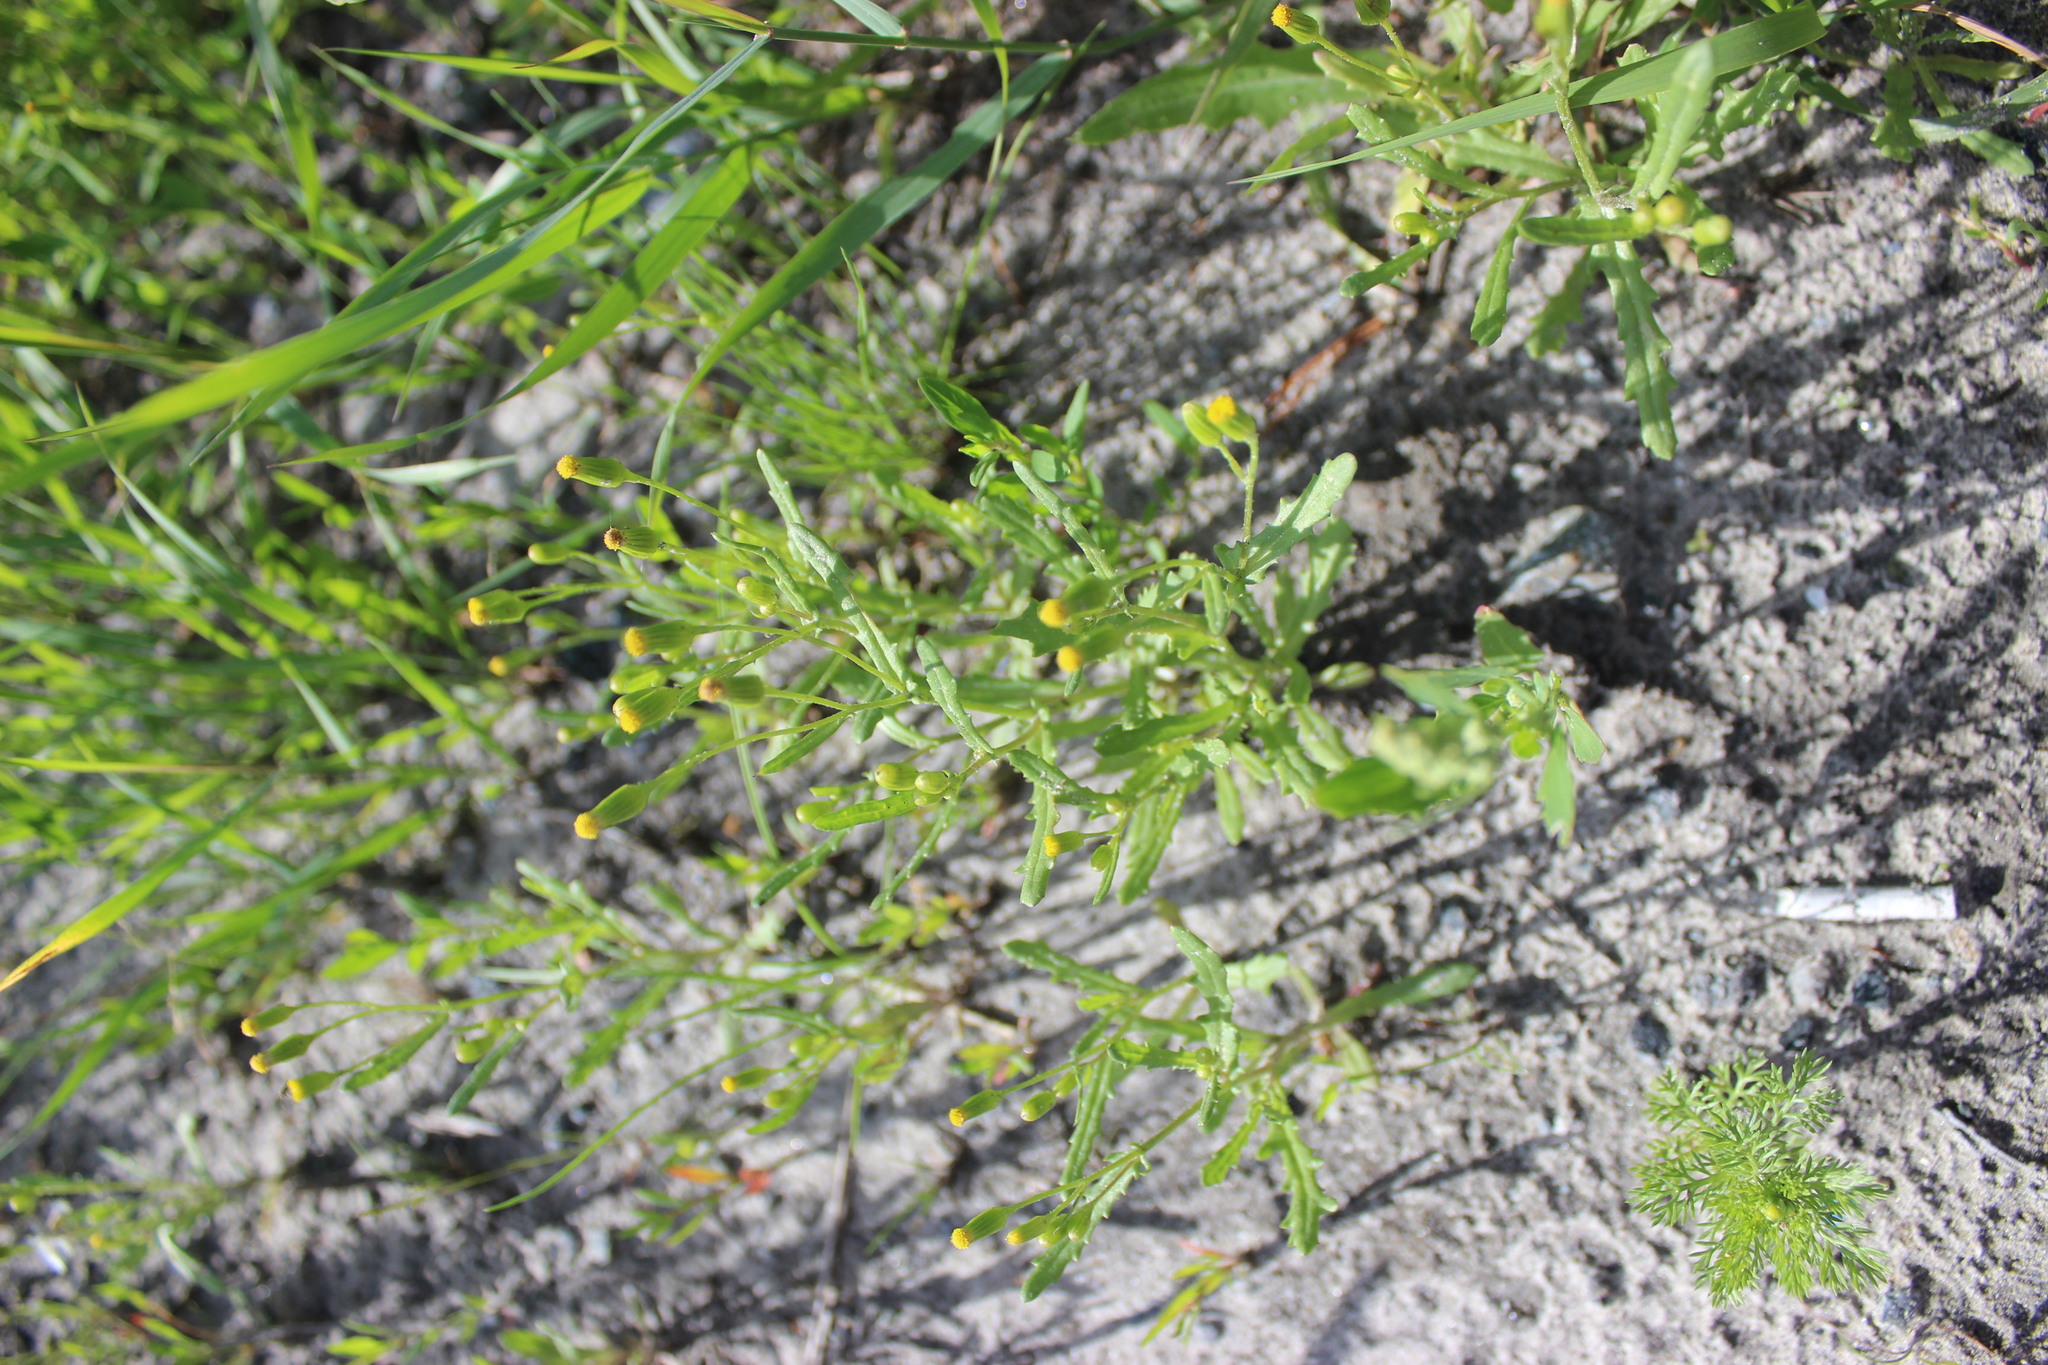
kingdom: Plantae
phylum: Tracheophyta
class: Magnoliopsida
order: Asterales
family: Asteraceae
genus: Senecio
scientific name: Senecio dubitabilis
